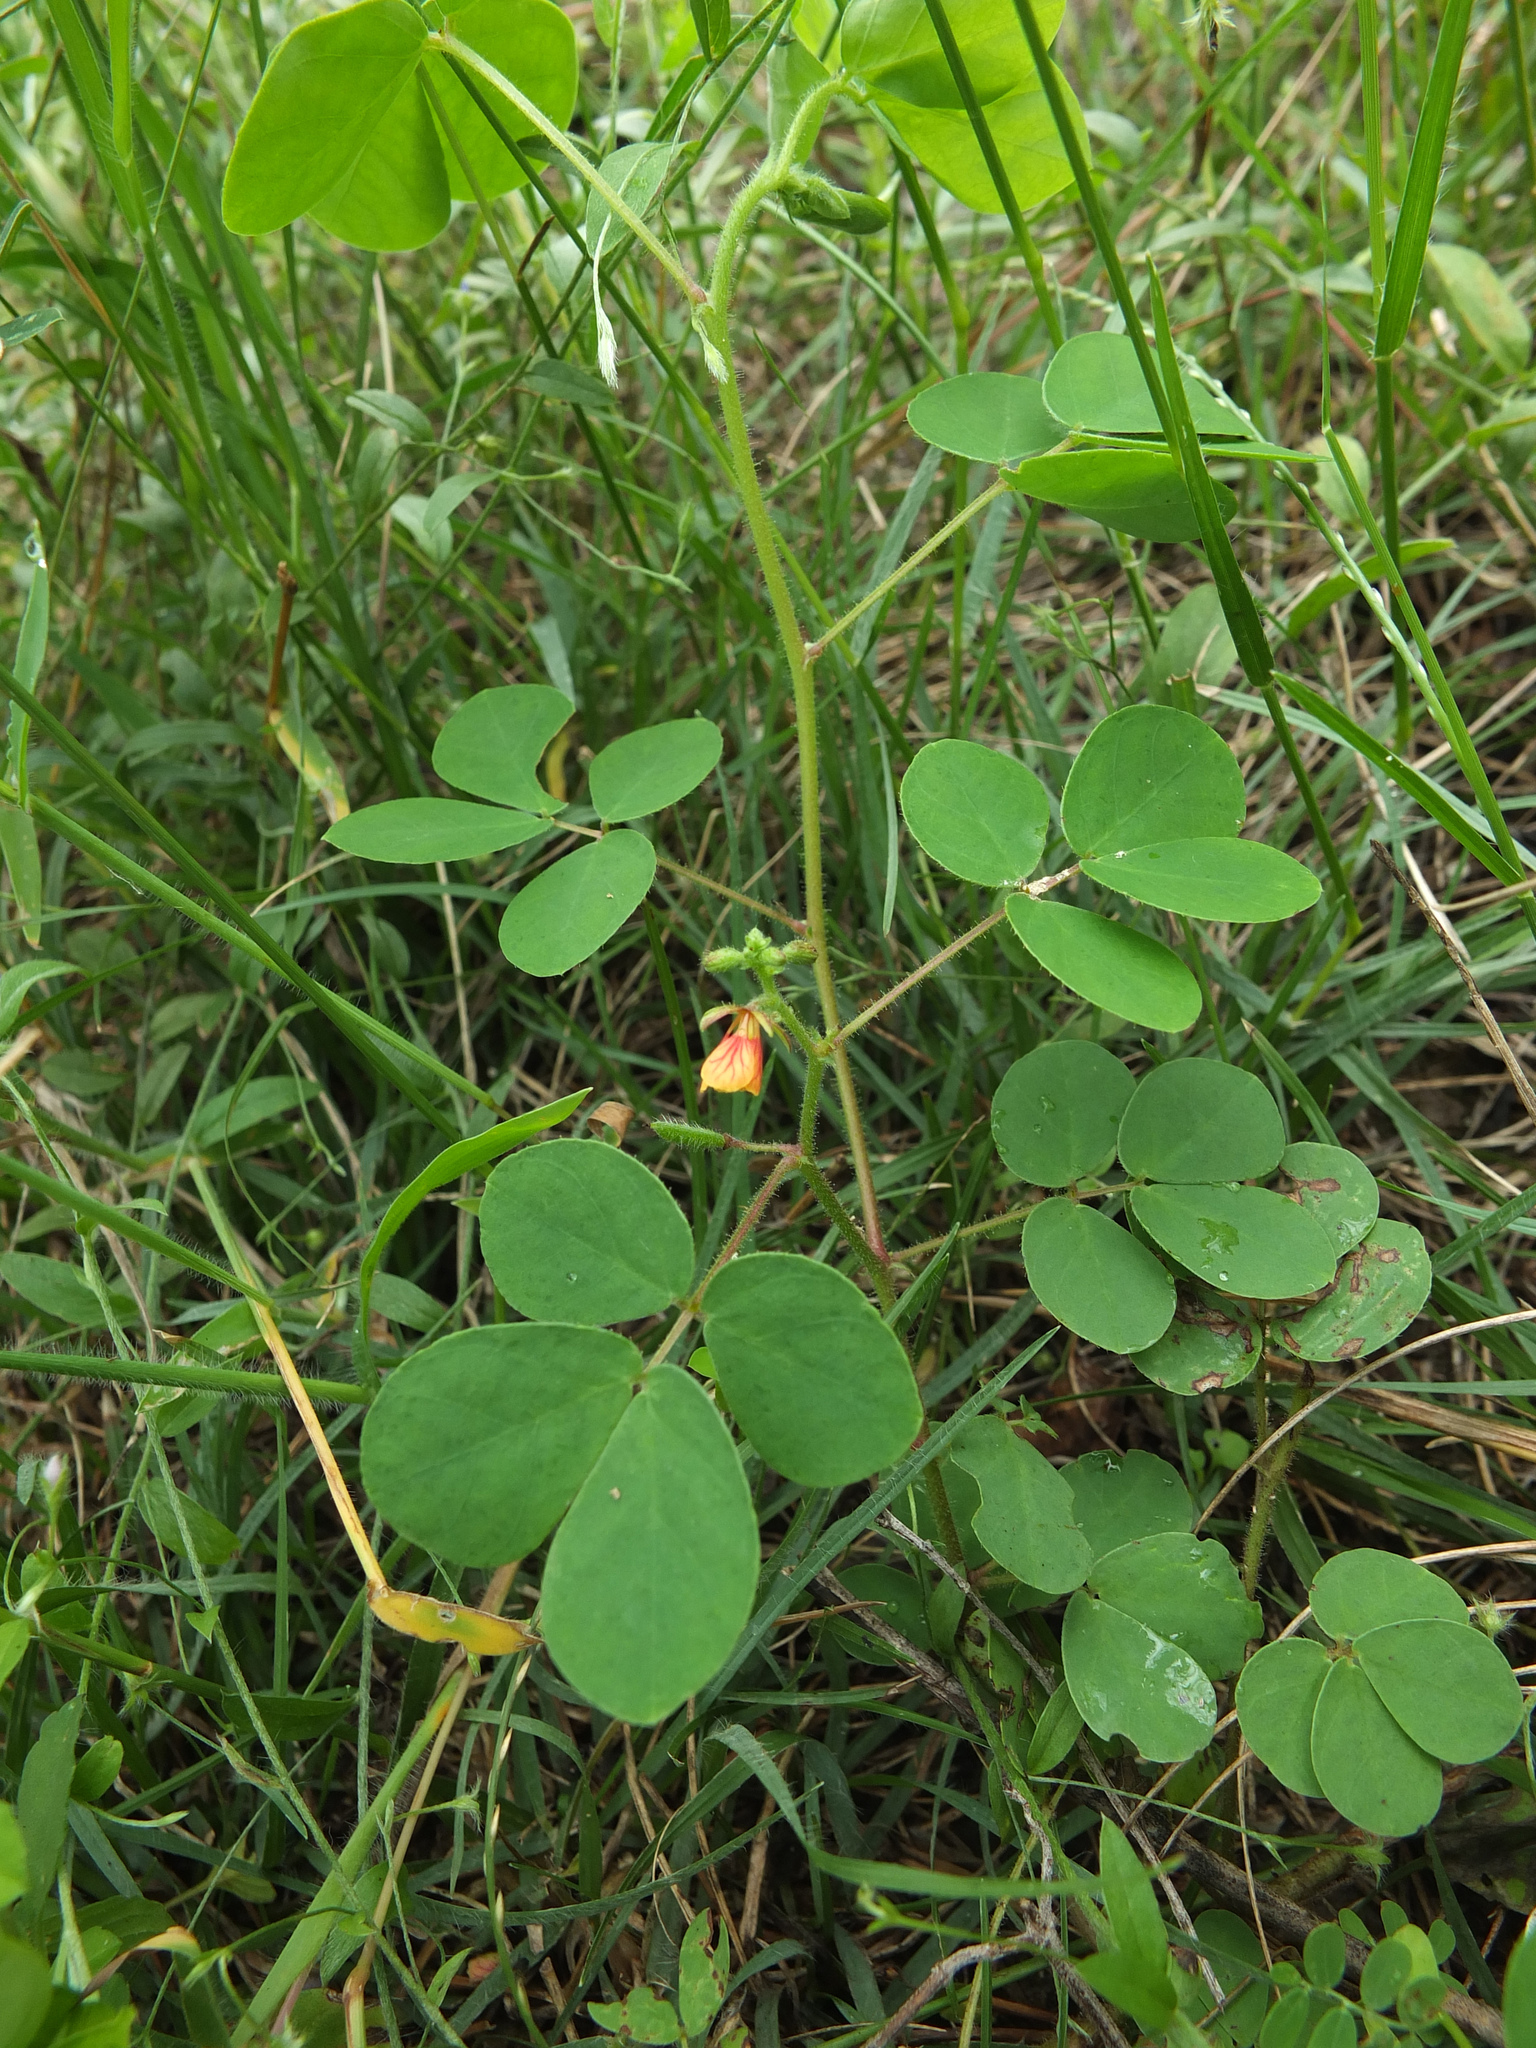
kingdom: Plantae
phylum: Tracheophyta
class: Magnoliopsida
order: Fabales
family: Fabaceae
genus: Chamaecrista
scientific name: Chamaecrista absus
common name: Tropical sensitive pea
